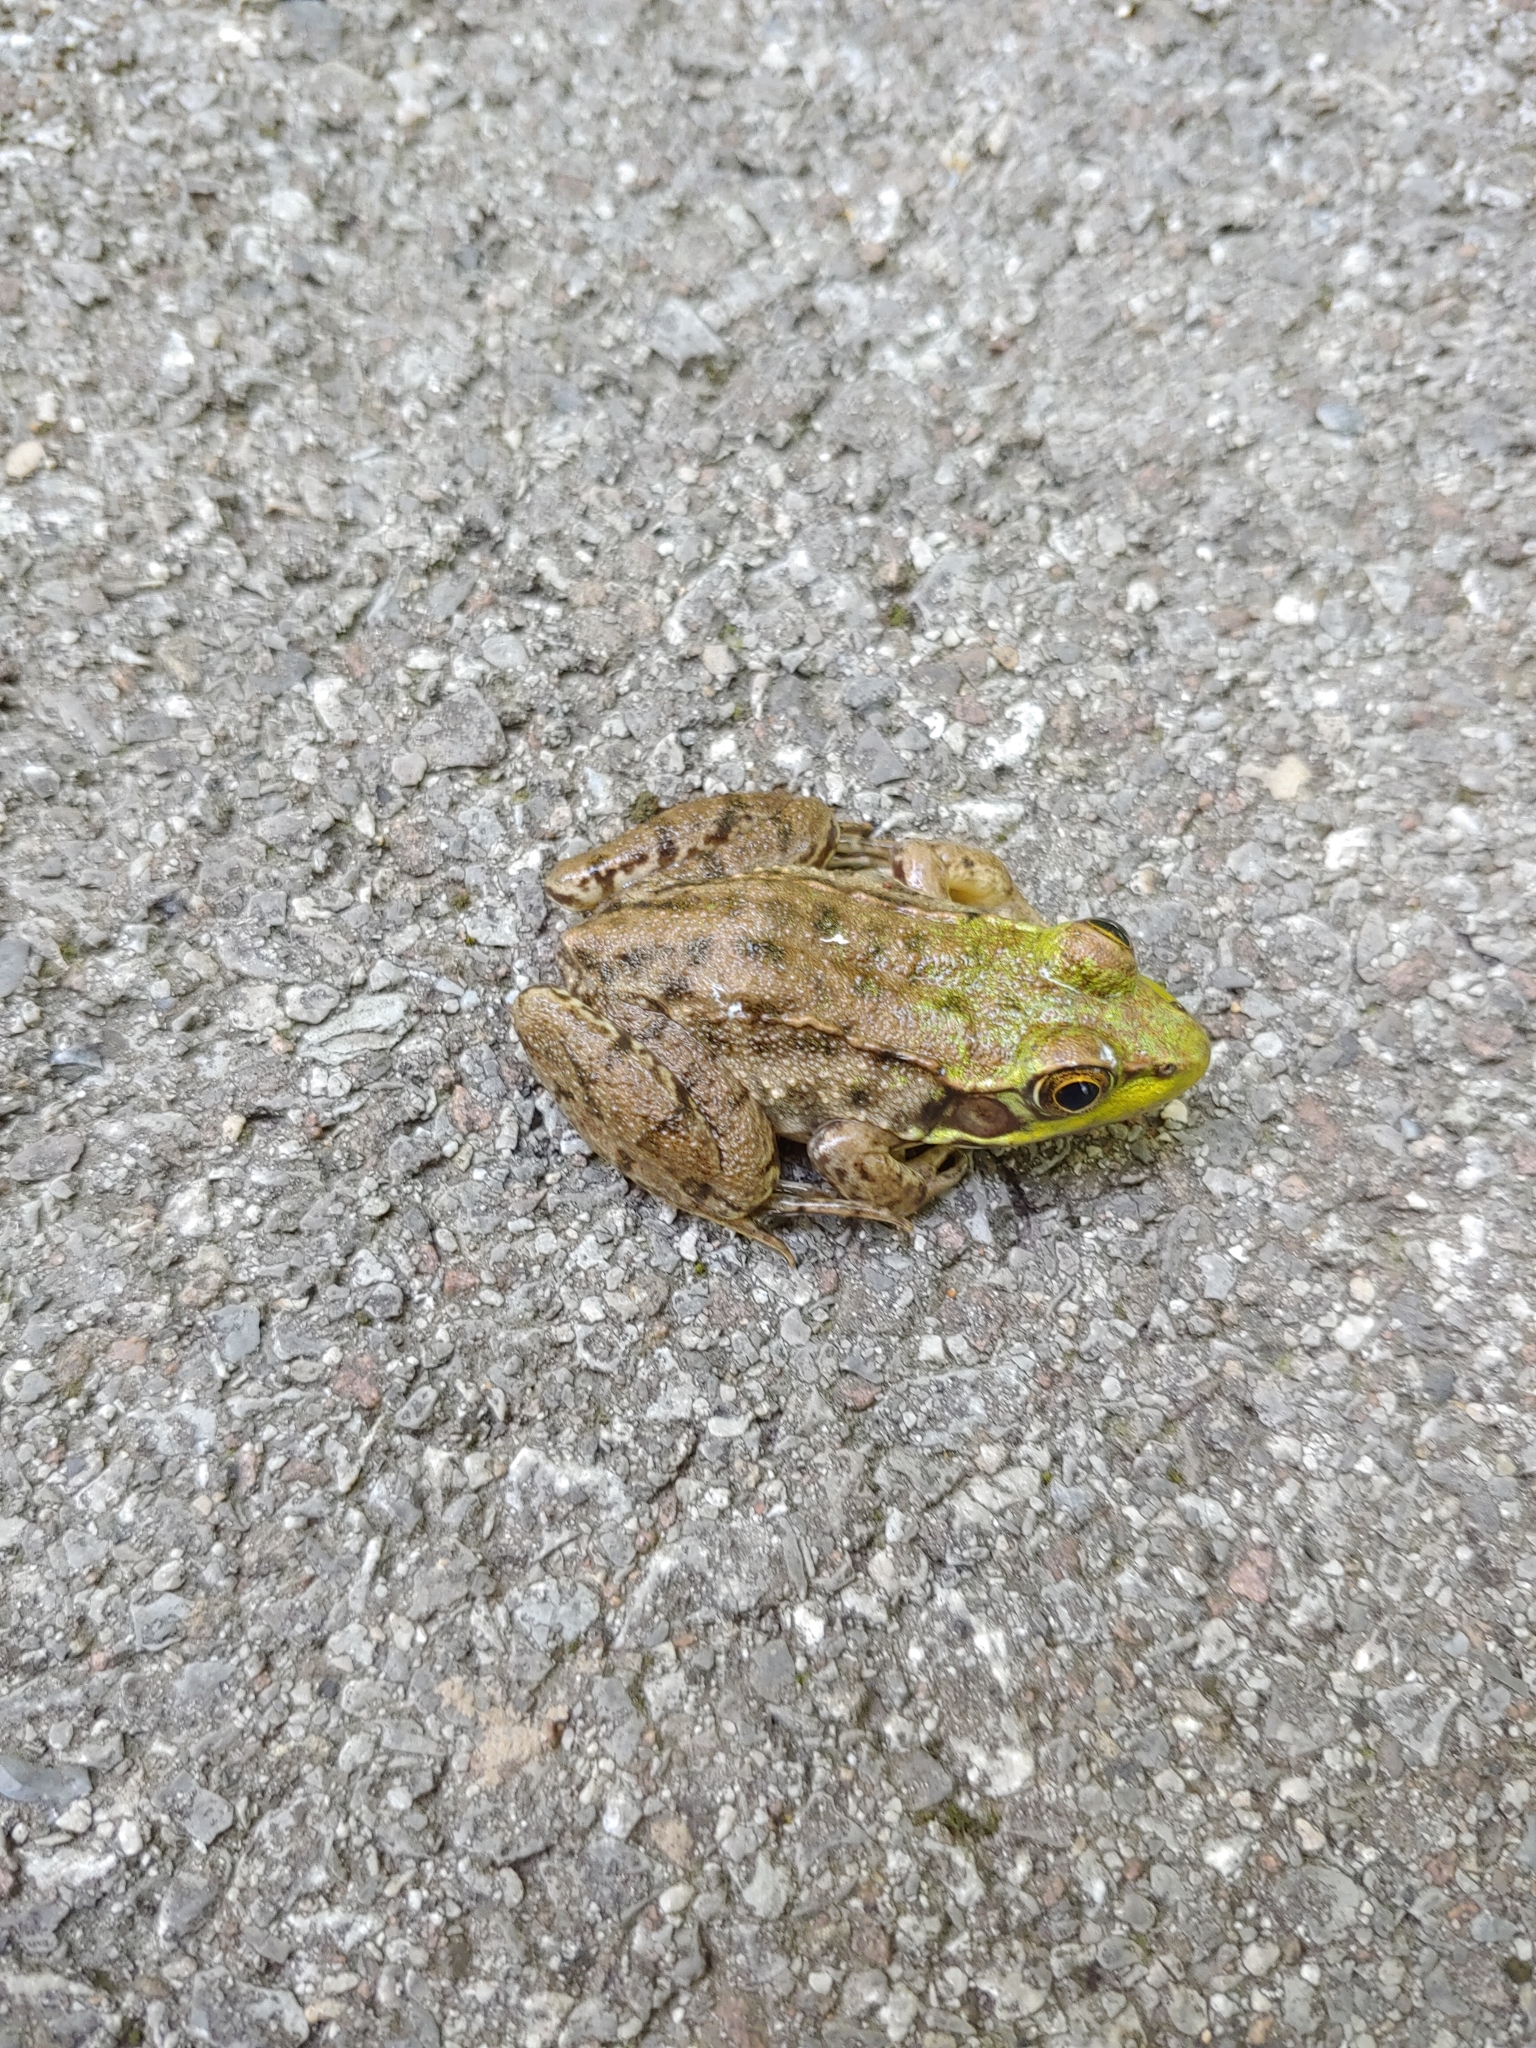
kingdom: Animalia
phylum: Chordata
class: Amphibia
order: Anura
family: Ranidae
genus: Lithobates
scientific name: Lithobates clamitans
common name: Green frog
